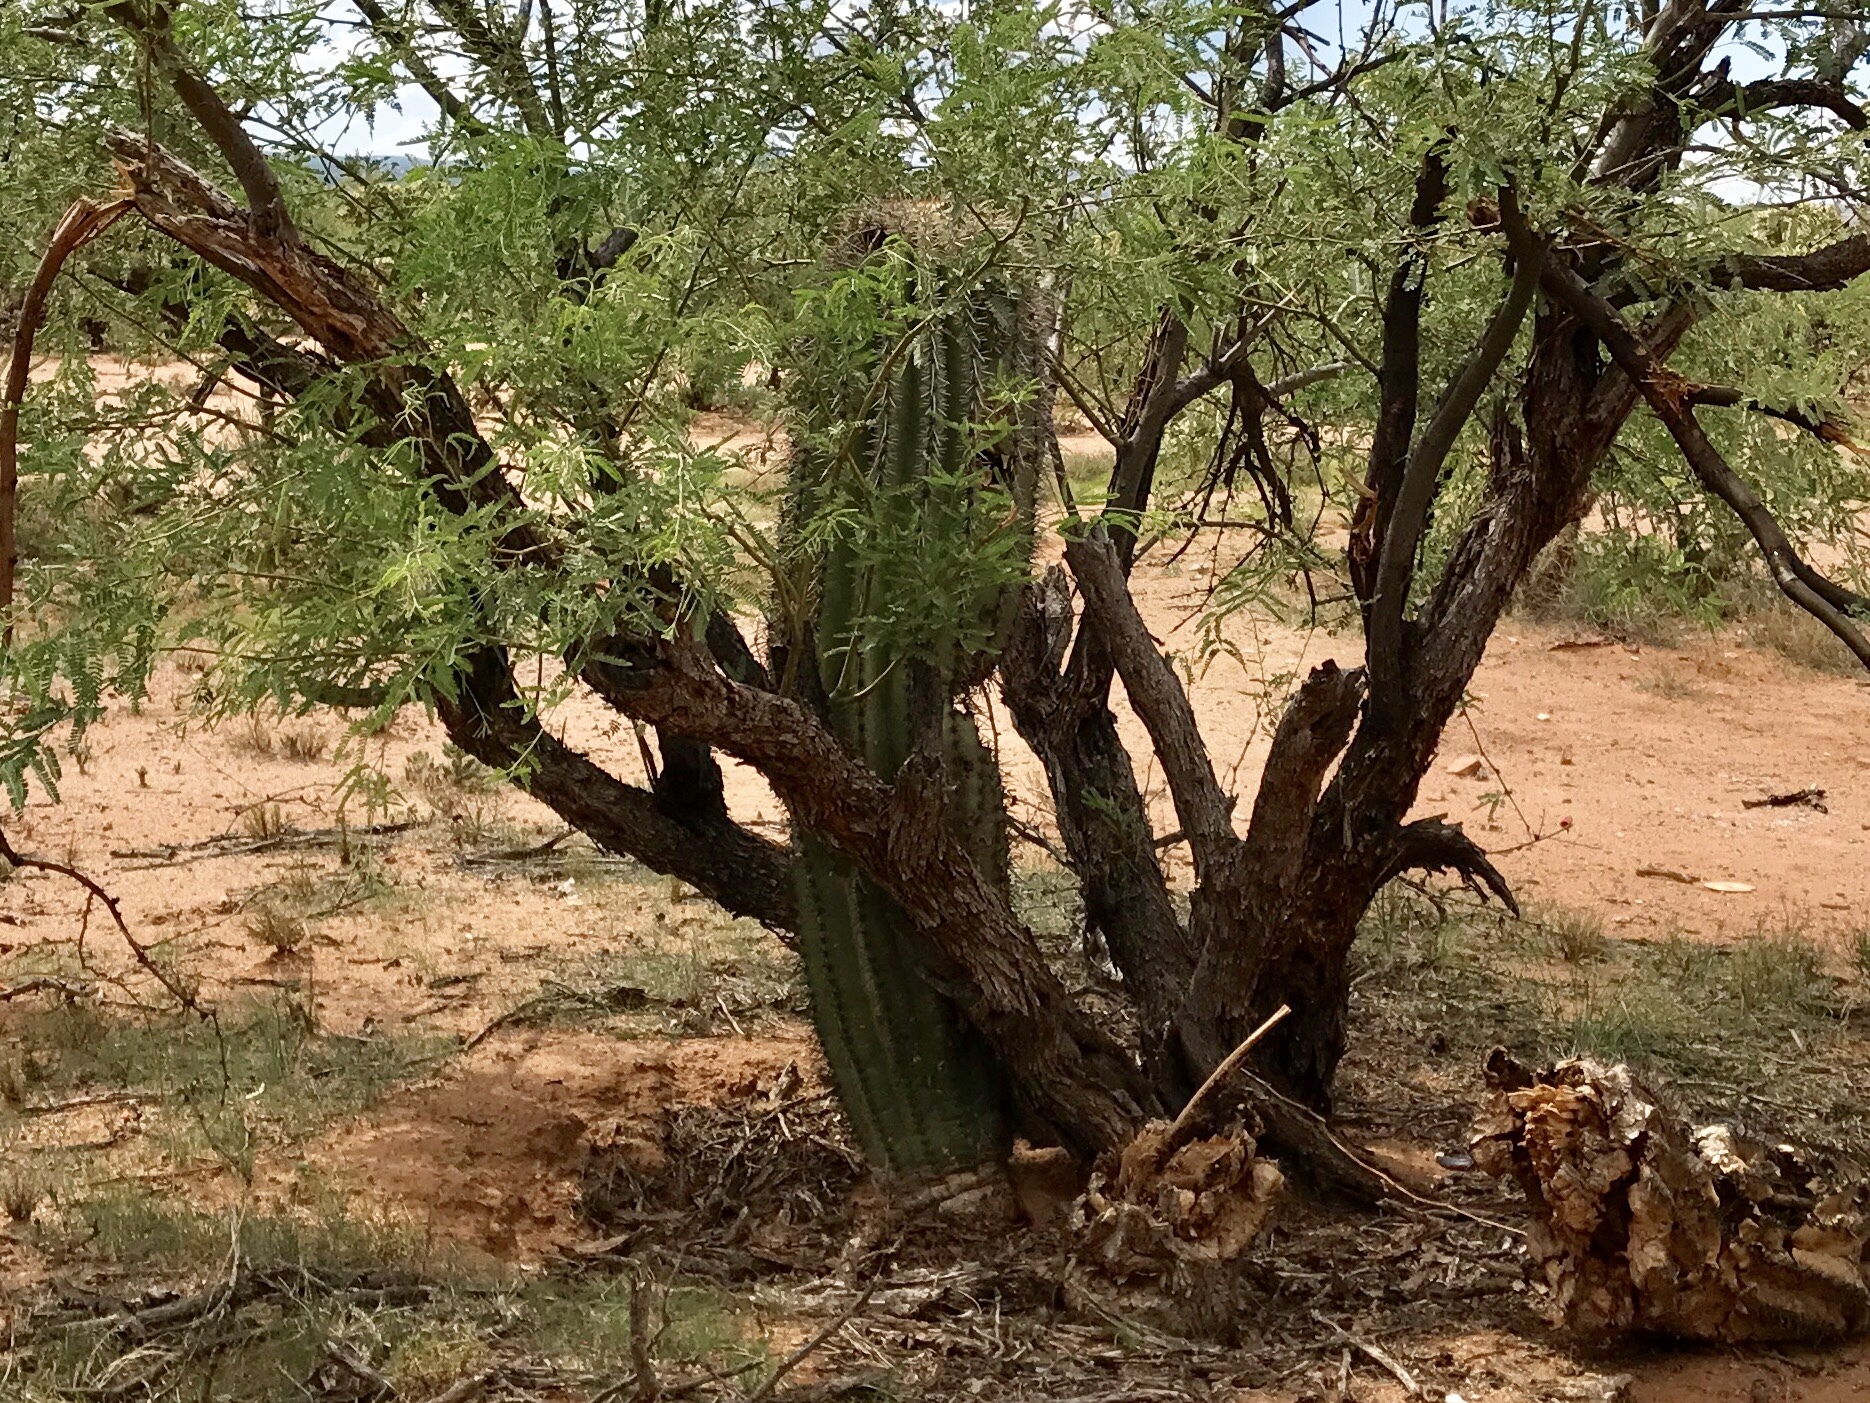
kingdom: Plantae
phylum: Tracheophyta
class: Magnoliopsida
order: Caryophyllales
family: Cactaceae
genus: Carnegiea
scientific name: Carnegiea gigantea
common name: Saguaro
